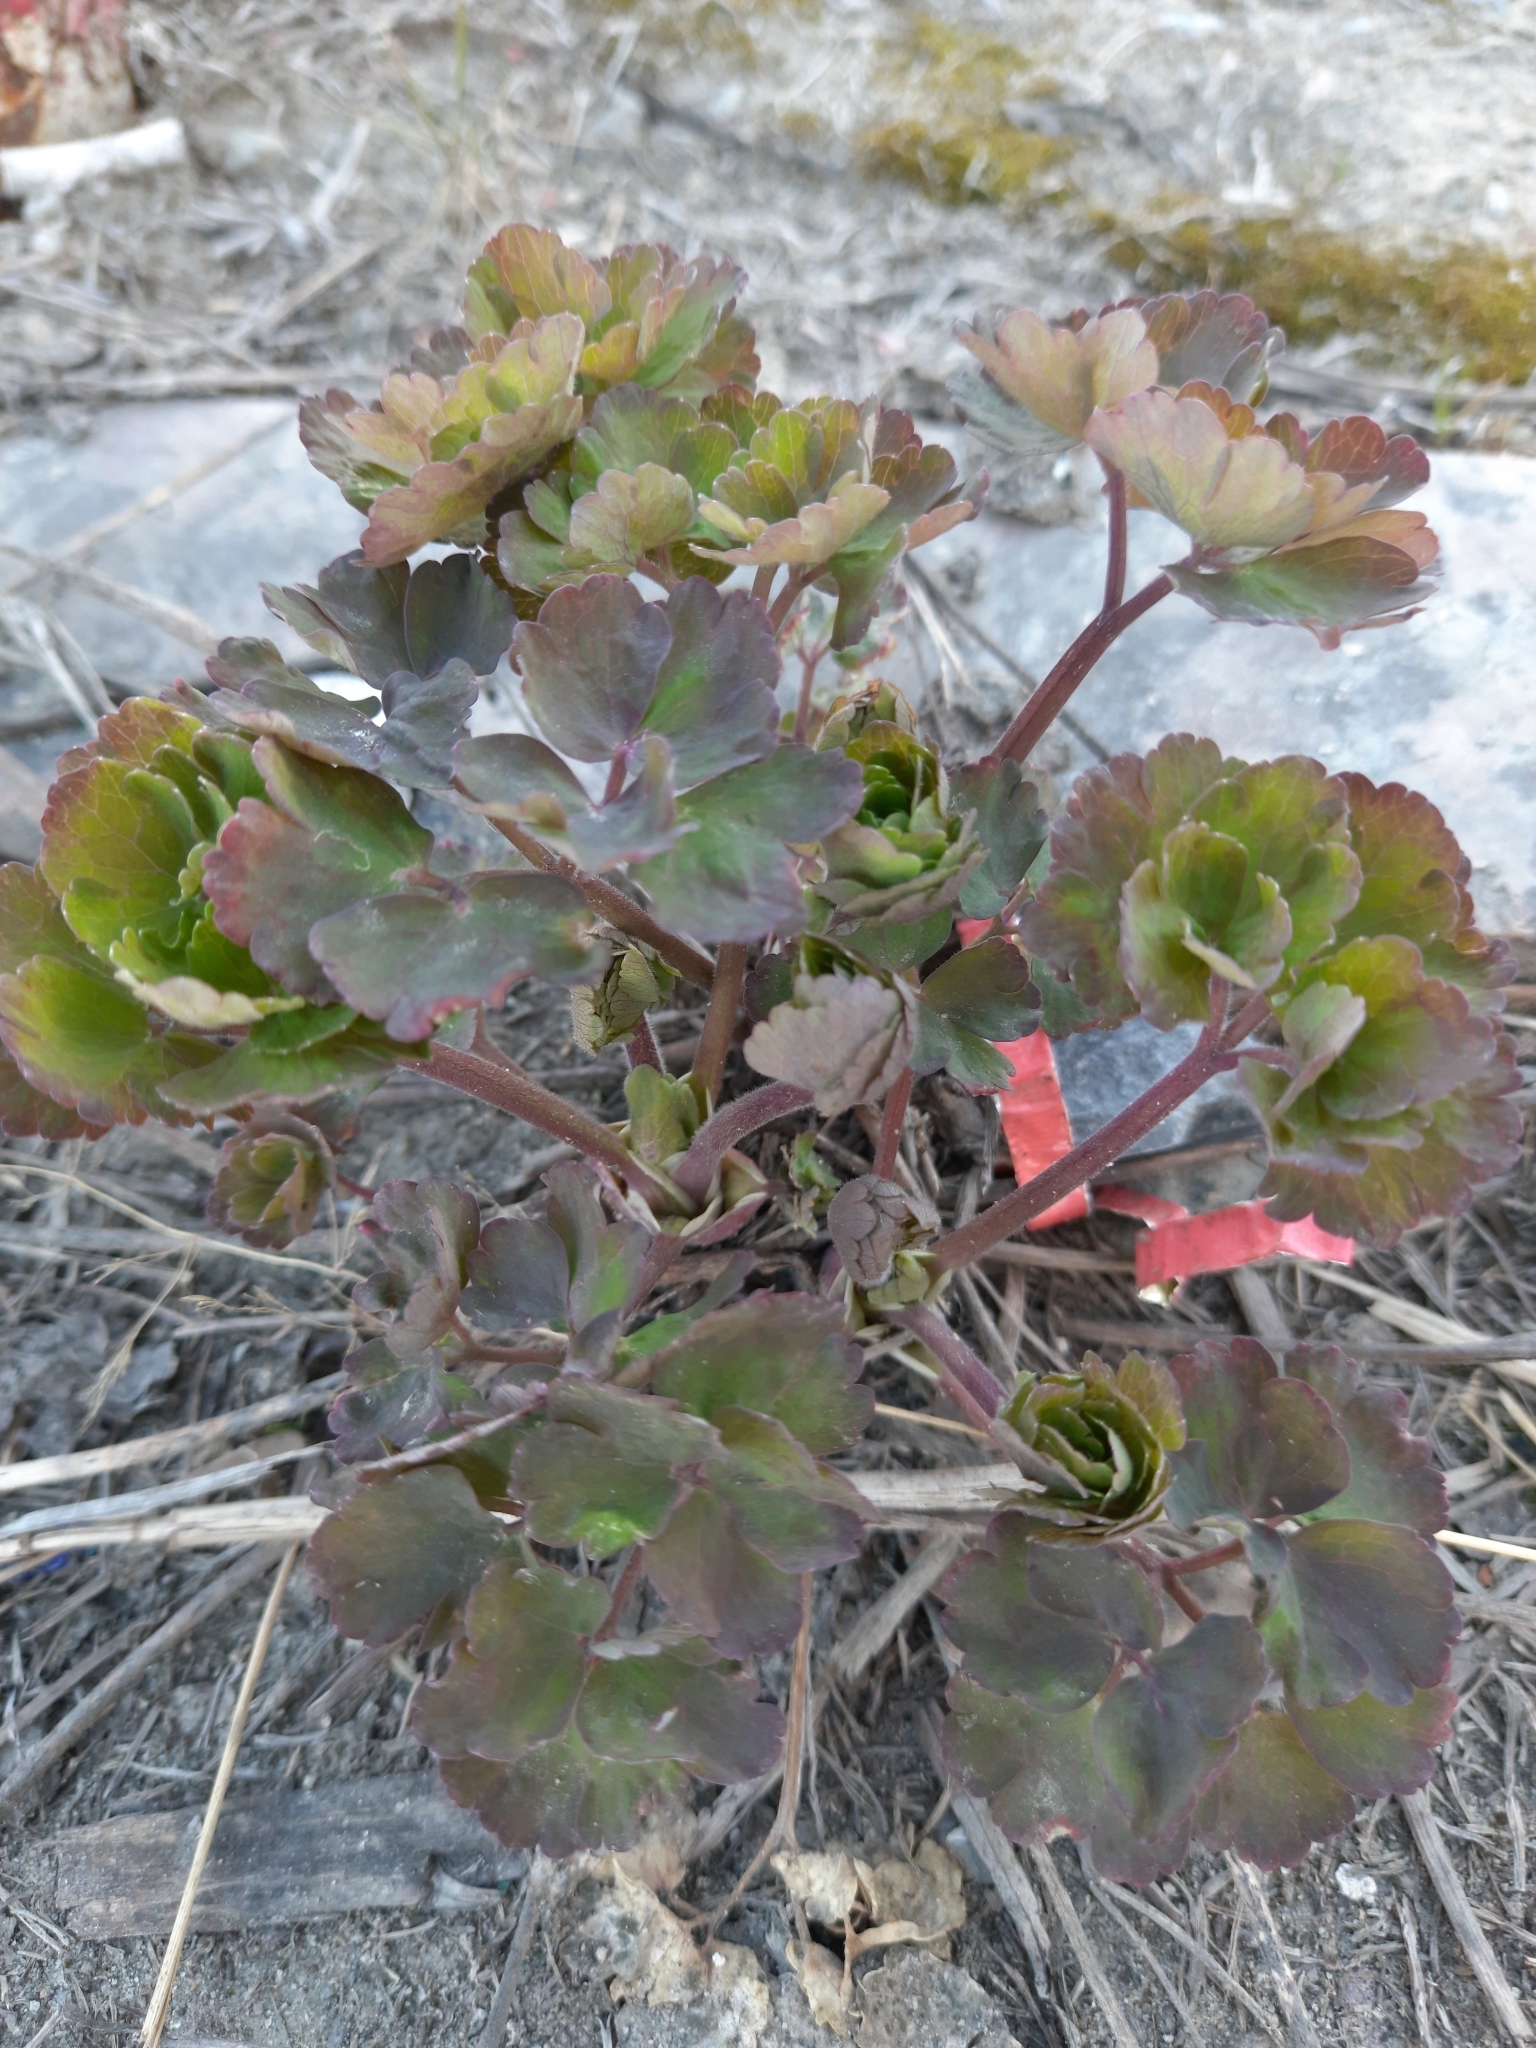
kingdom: Plantae
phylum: Tracheophyta
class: Magnoliopsida
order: Ranunculales
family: Ranunculaceae
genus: Aquilegia
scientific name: Aquilegia vulgaris
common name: Columbine
